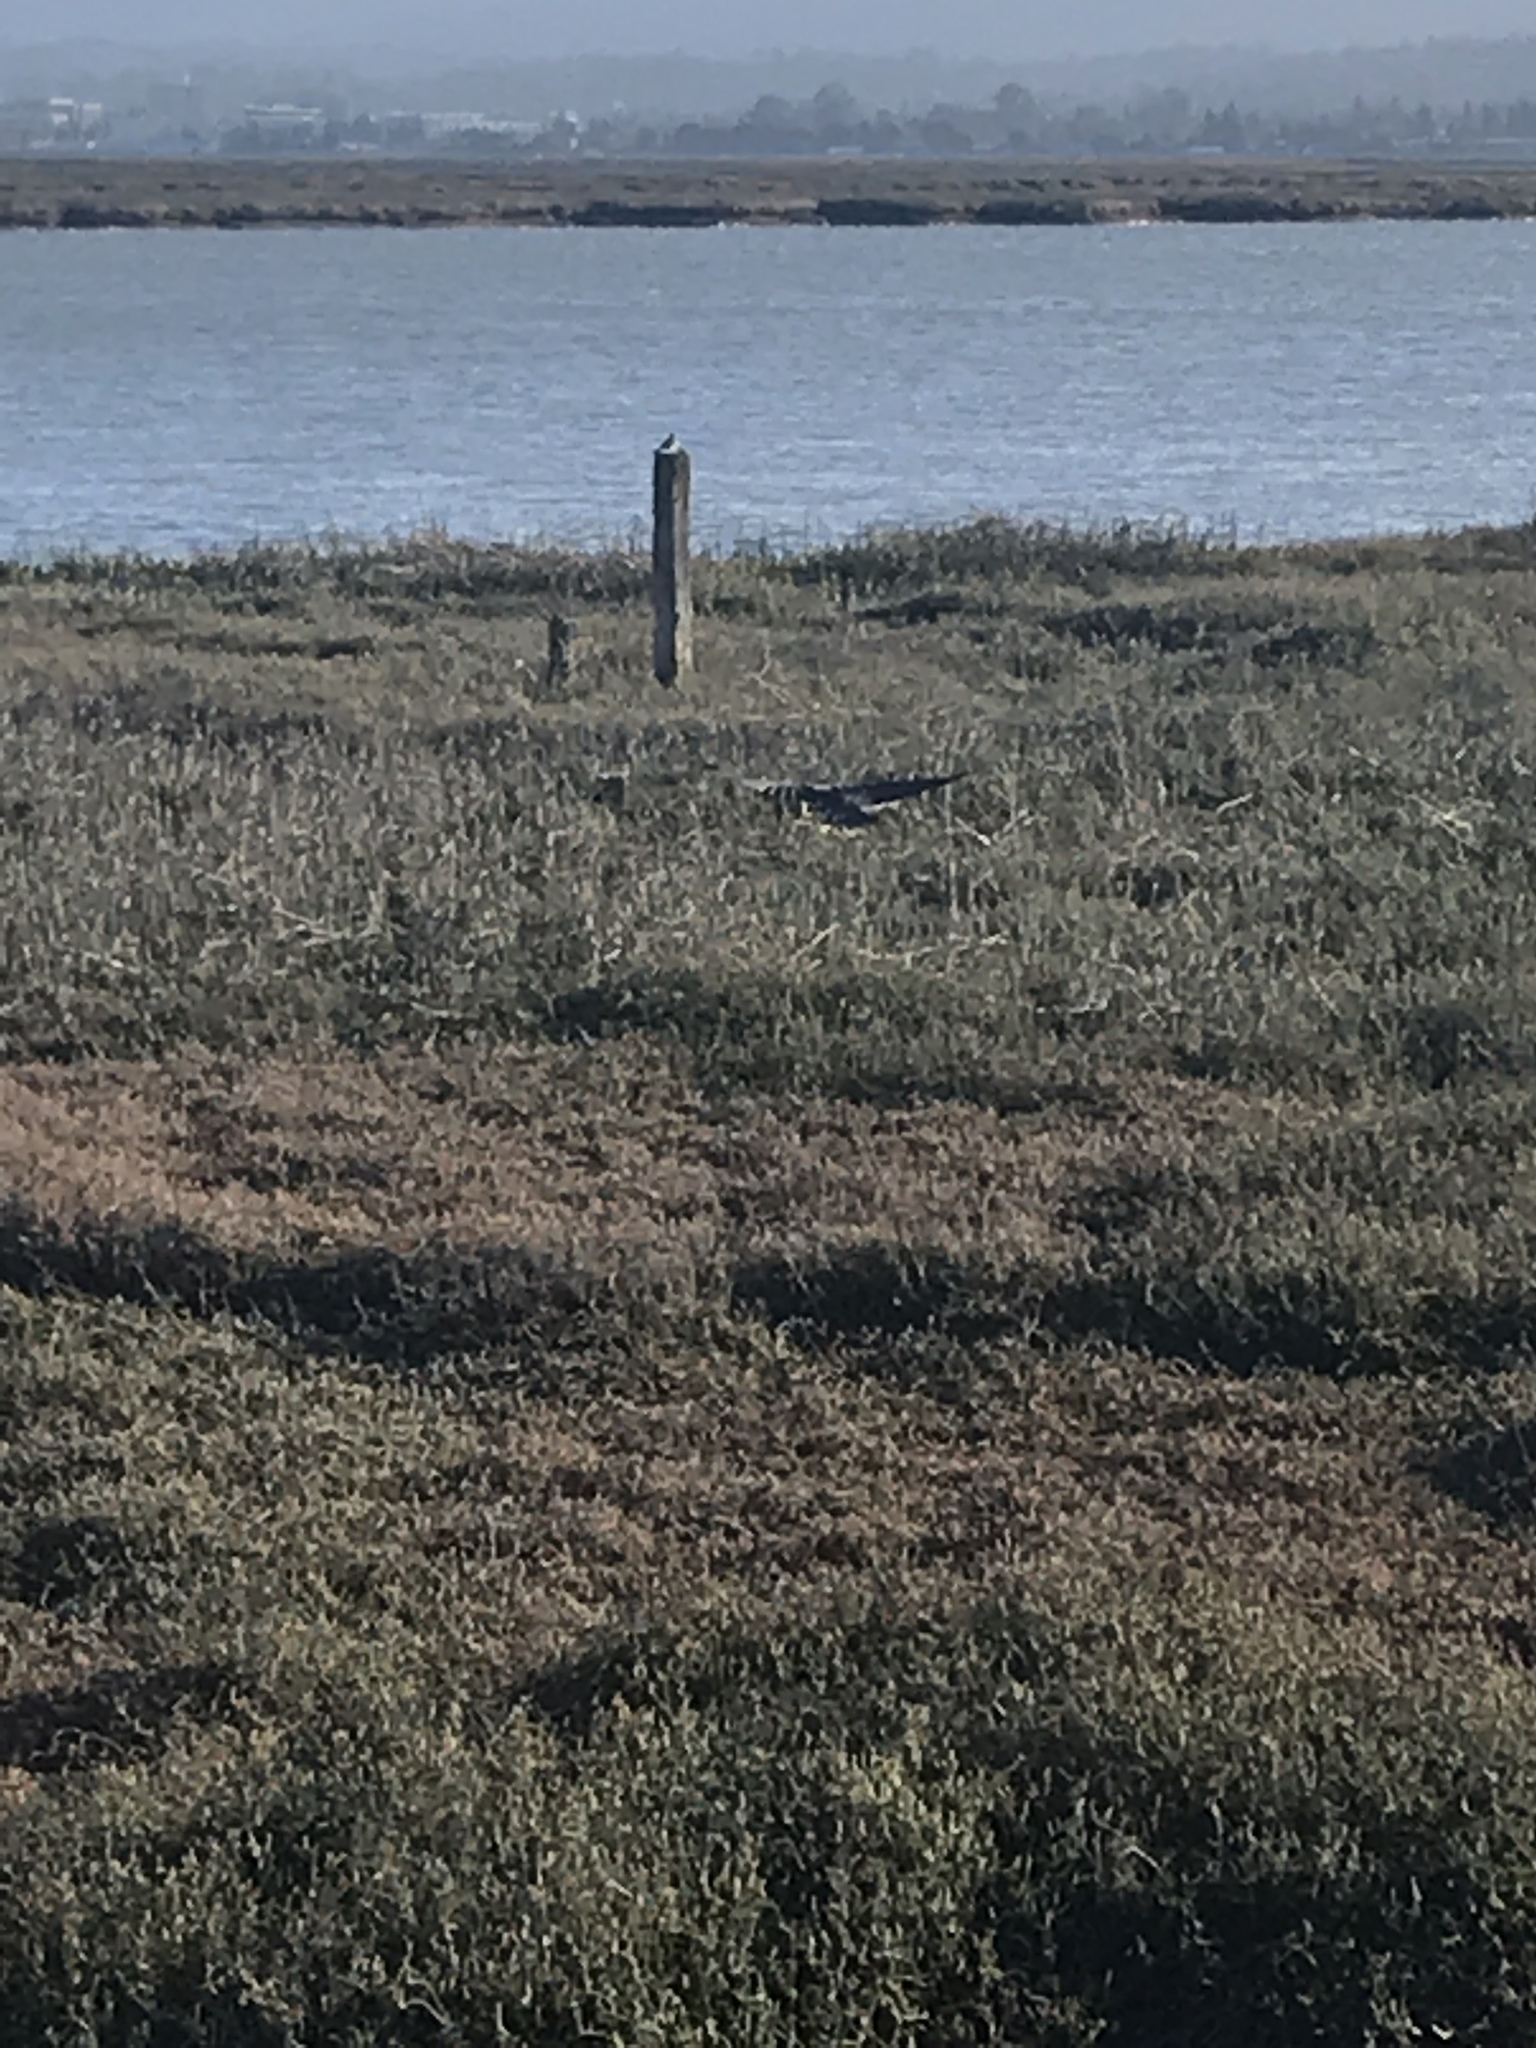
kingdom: Animalia
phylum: Chordata
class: Aves
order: Passeriformes
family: Corvidae
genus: Corvus
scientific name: Corvus brachyrhynchos
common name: American crow
